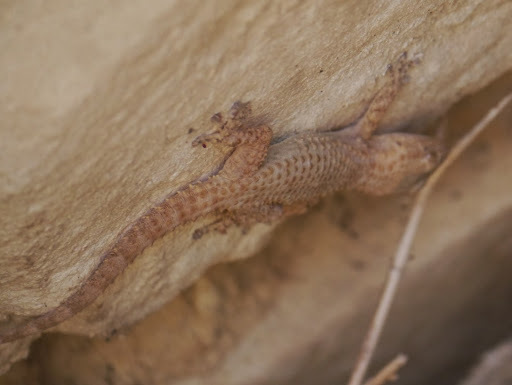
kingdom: Animalia
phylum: Chordata
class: Squamata
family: Phyllodactylidae
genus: Tarentola
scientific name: Tarentola mauritanica
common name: Moorish gecko
